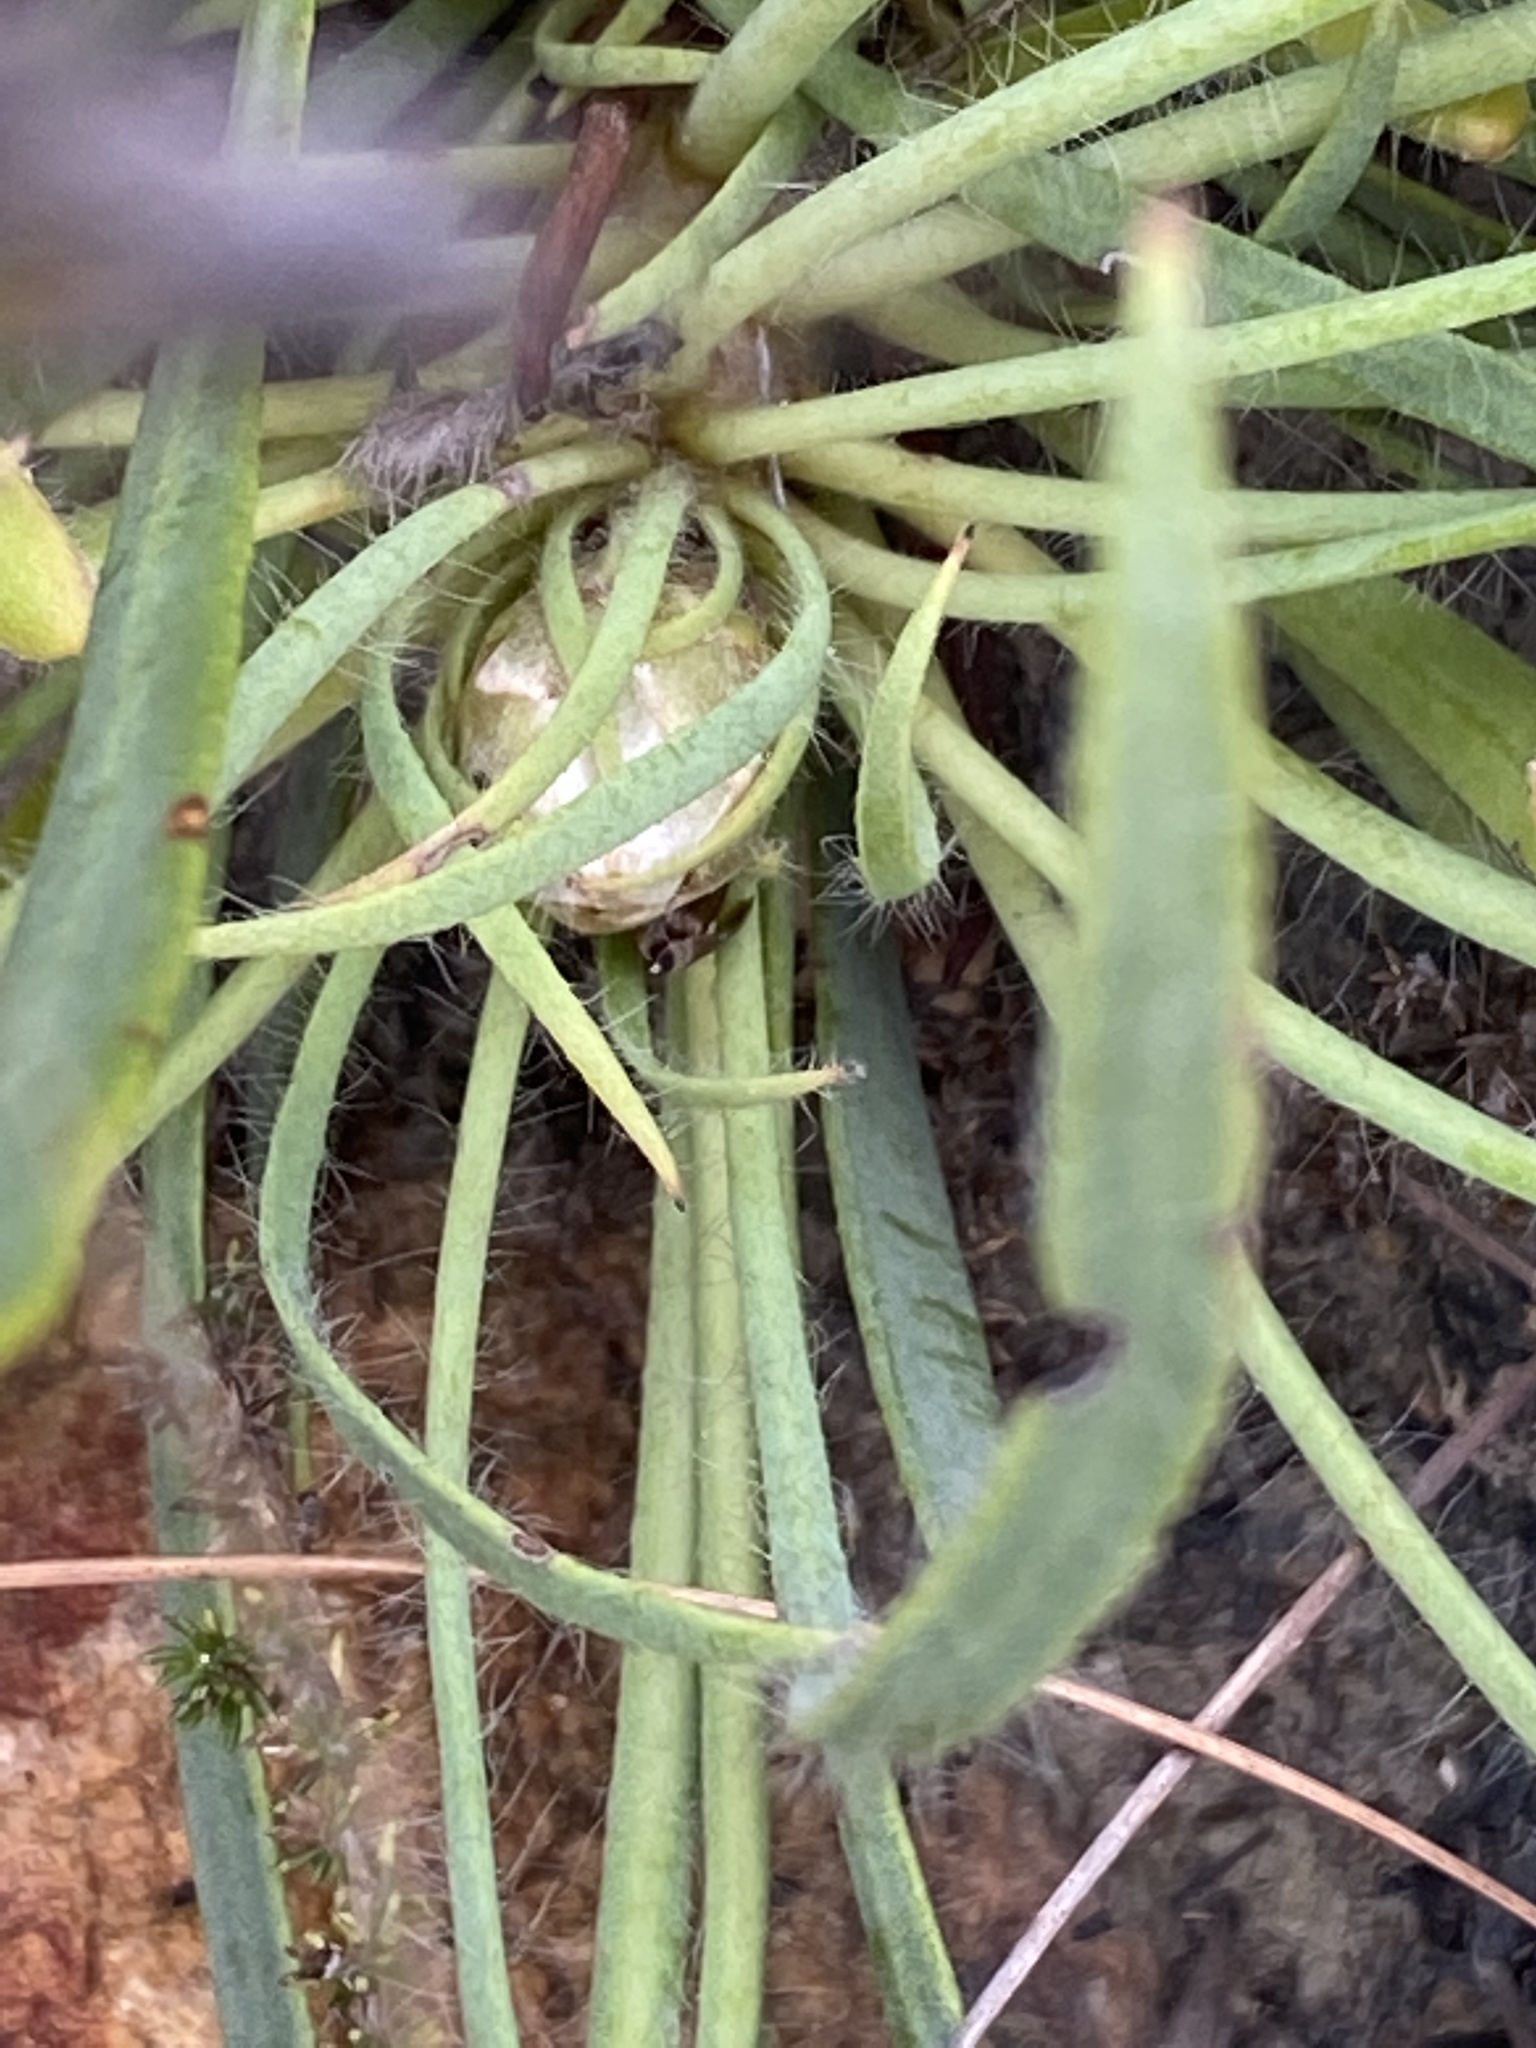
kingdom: Plantae
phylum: Tracheophyta
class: Magnoliopsida
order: Proteales
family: Proteaceae
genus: Protea
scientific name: Protea aspera
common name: Rough-leaf sugarbush
